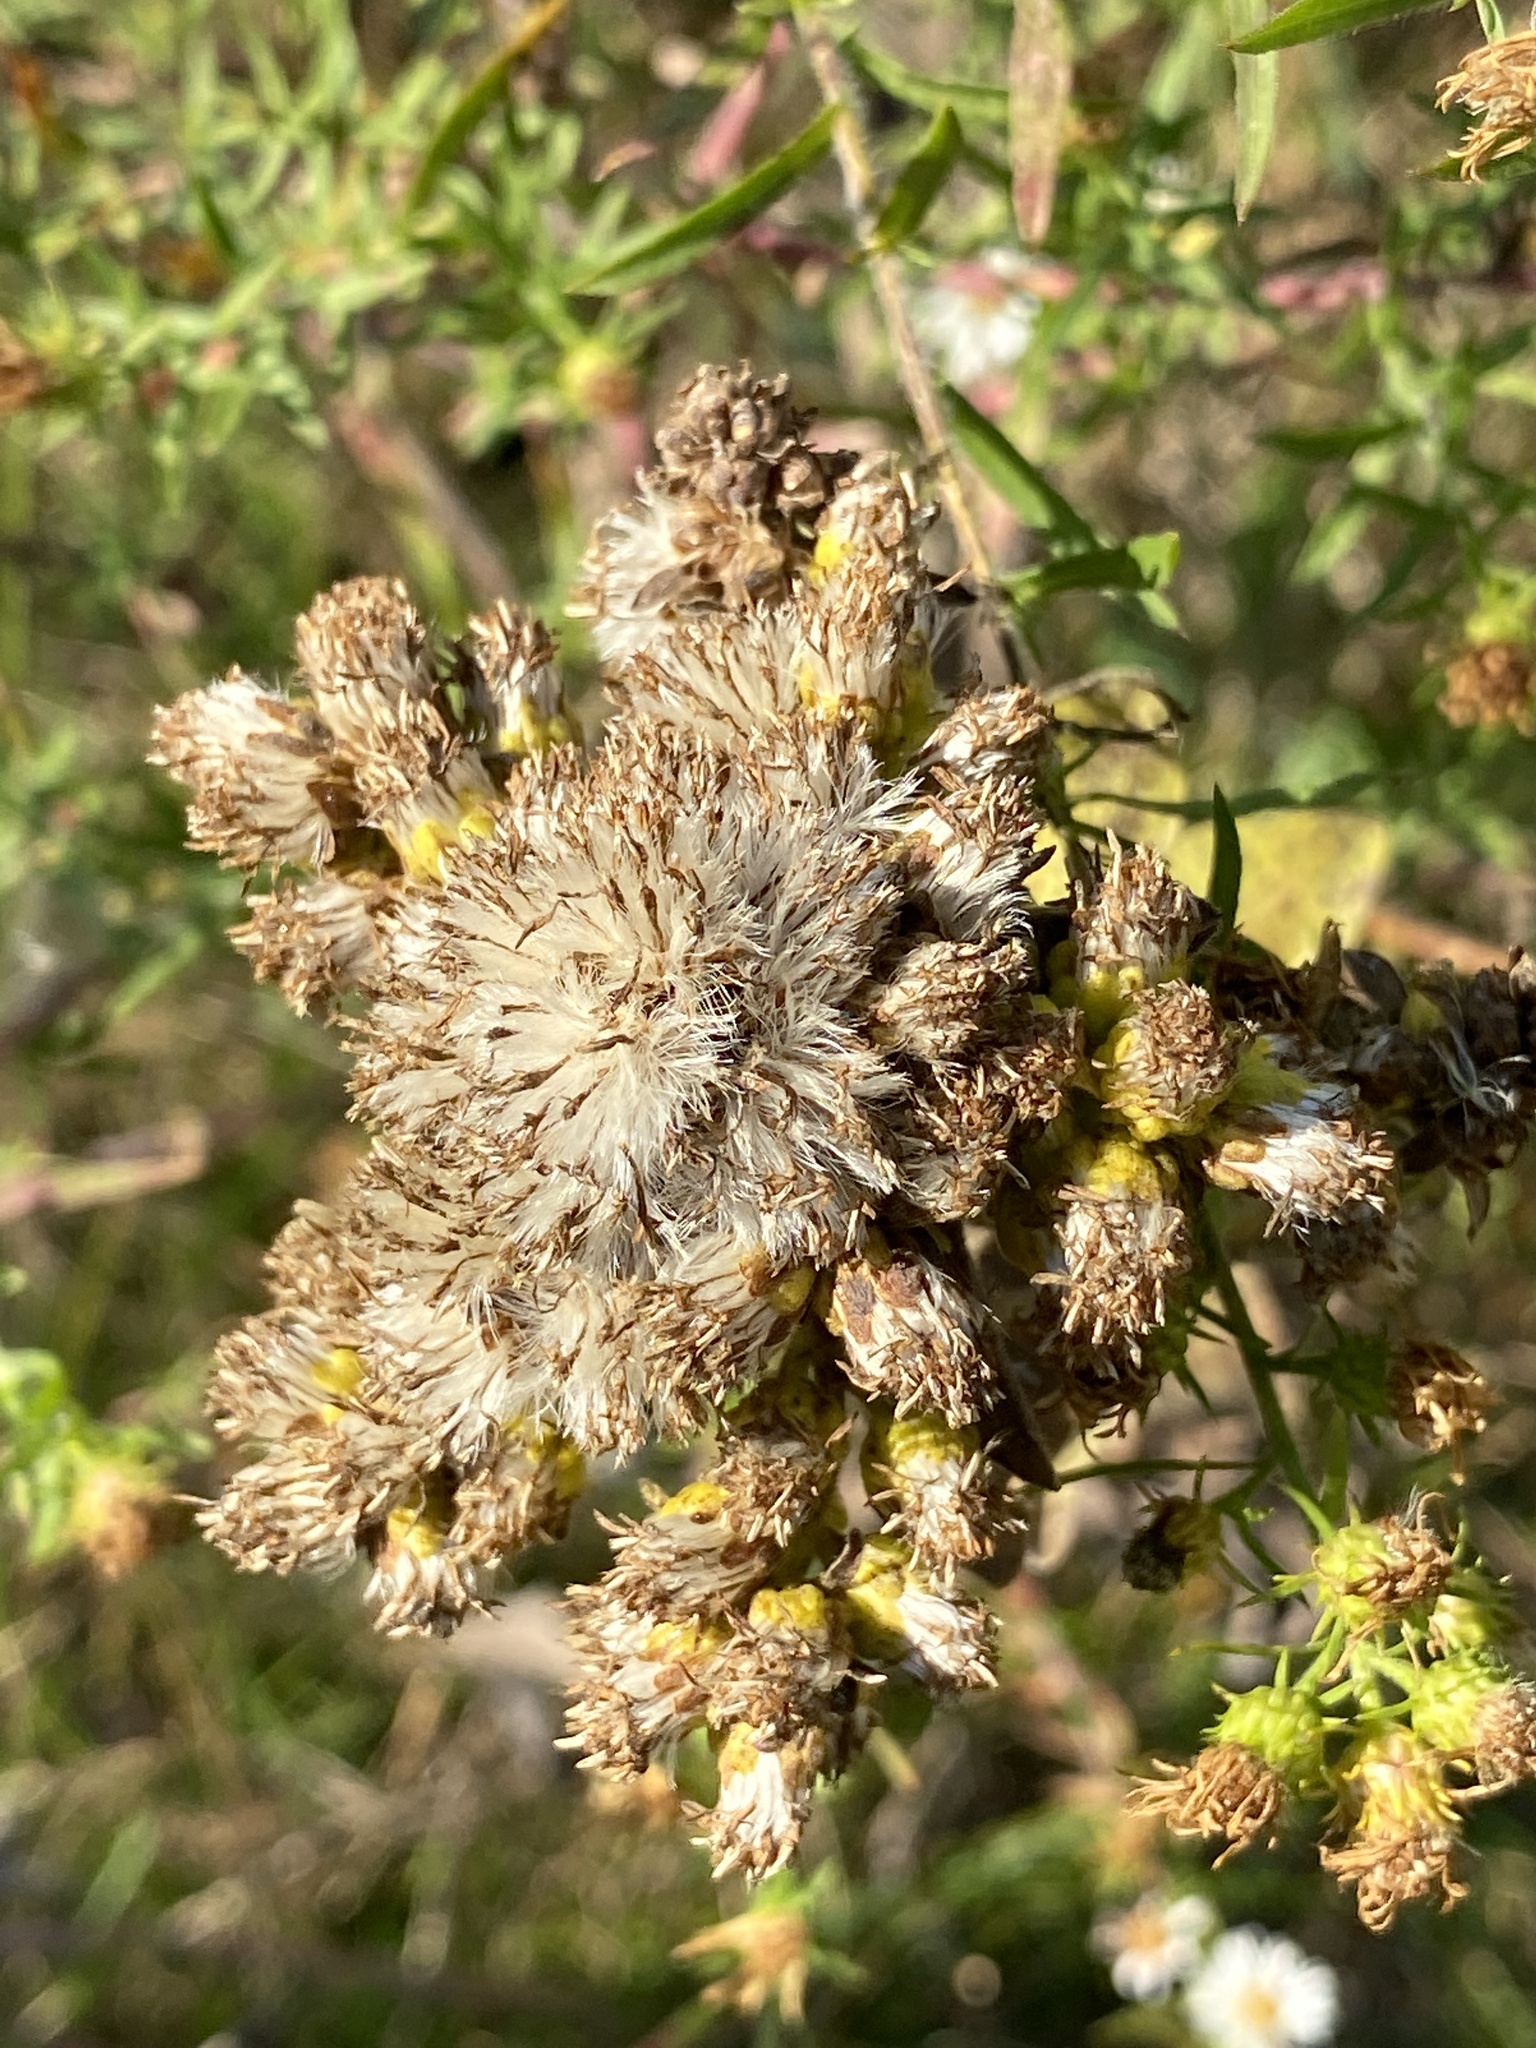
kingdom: Plantae
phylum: Tracheophyta
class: Magnoliopsida
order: Asterales
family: Asteraceae
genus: Solidago
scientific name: Solidago rigida
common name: Rigid goldenrod
